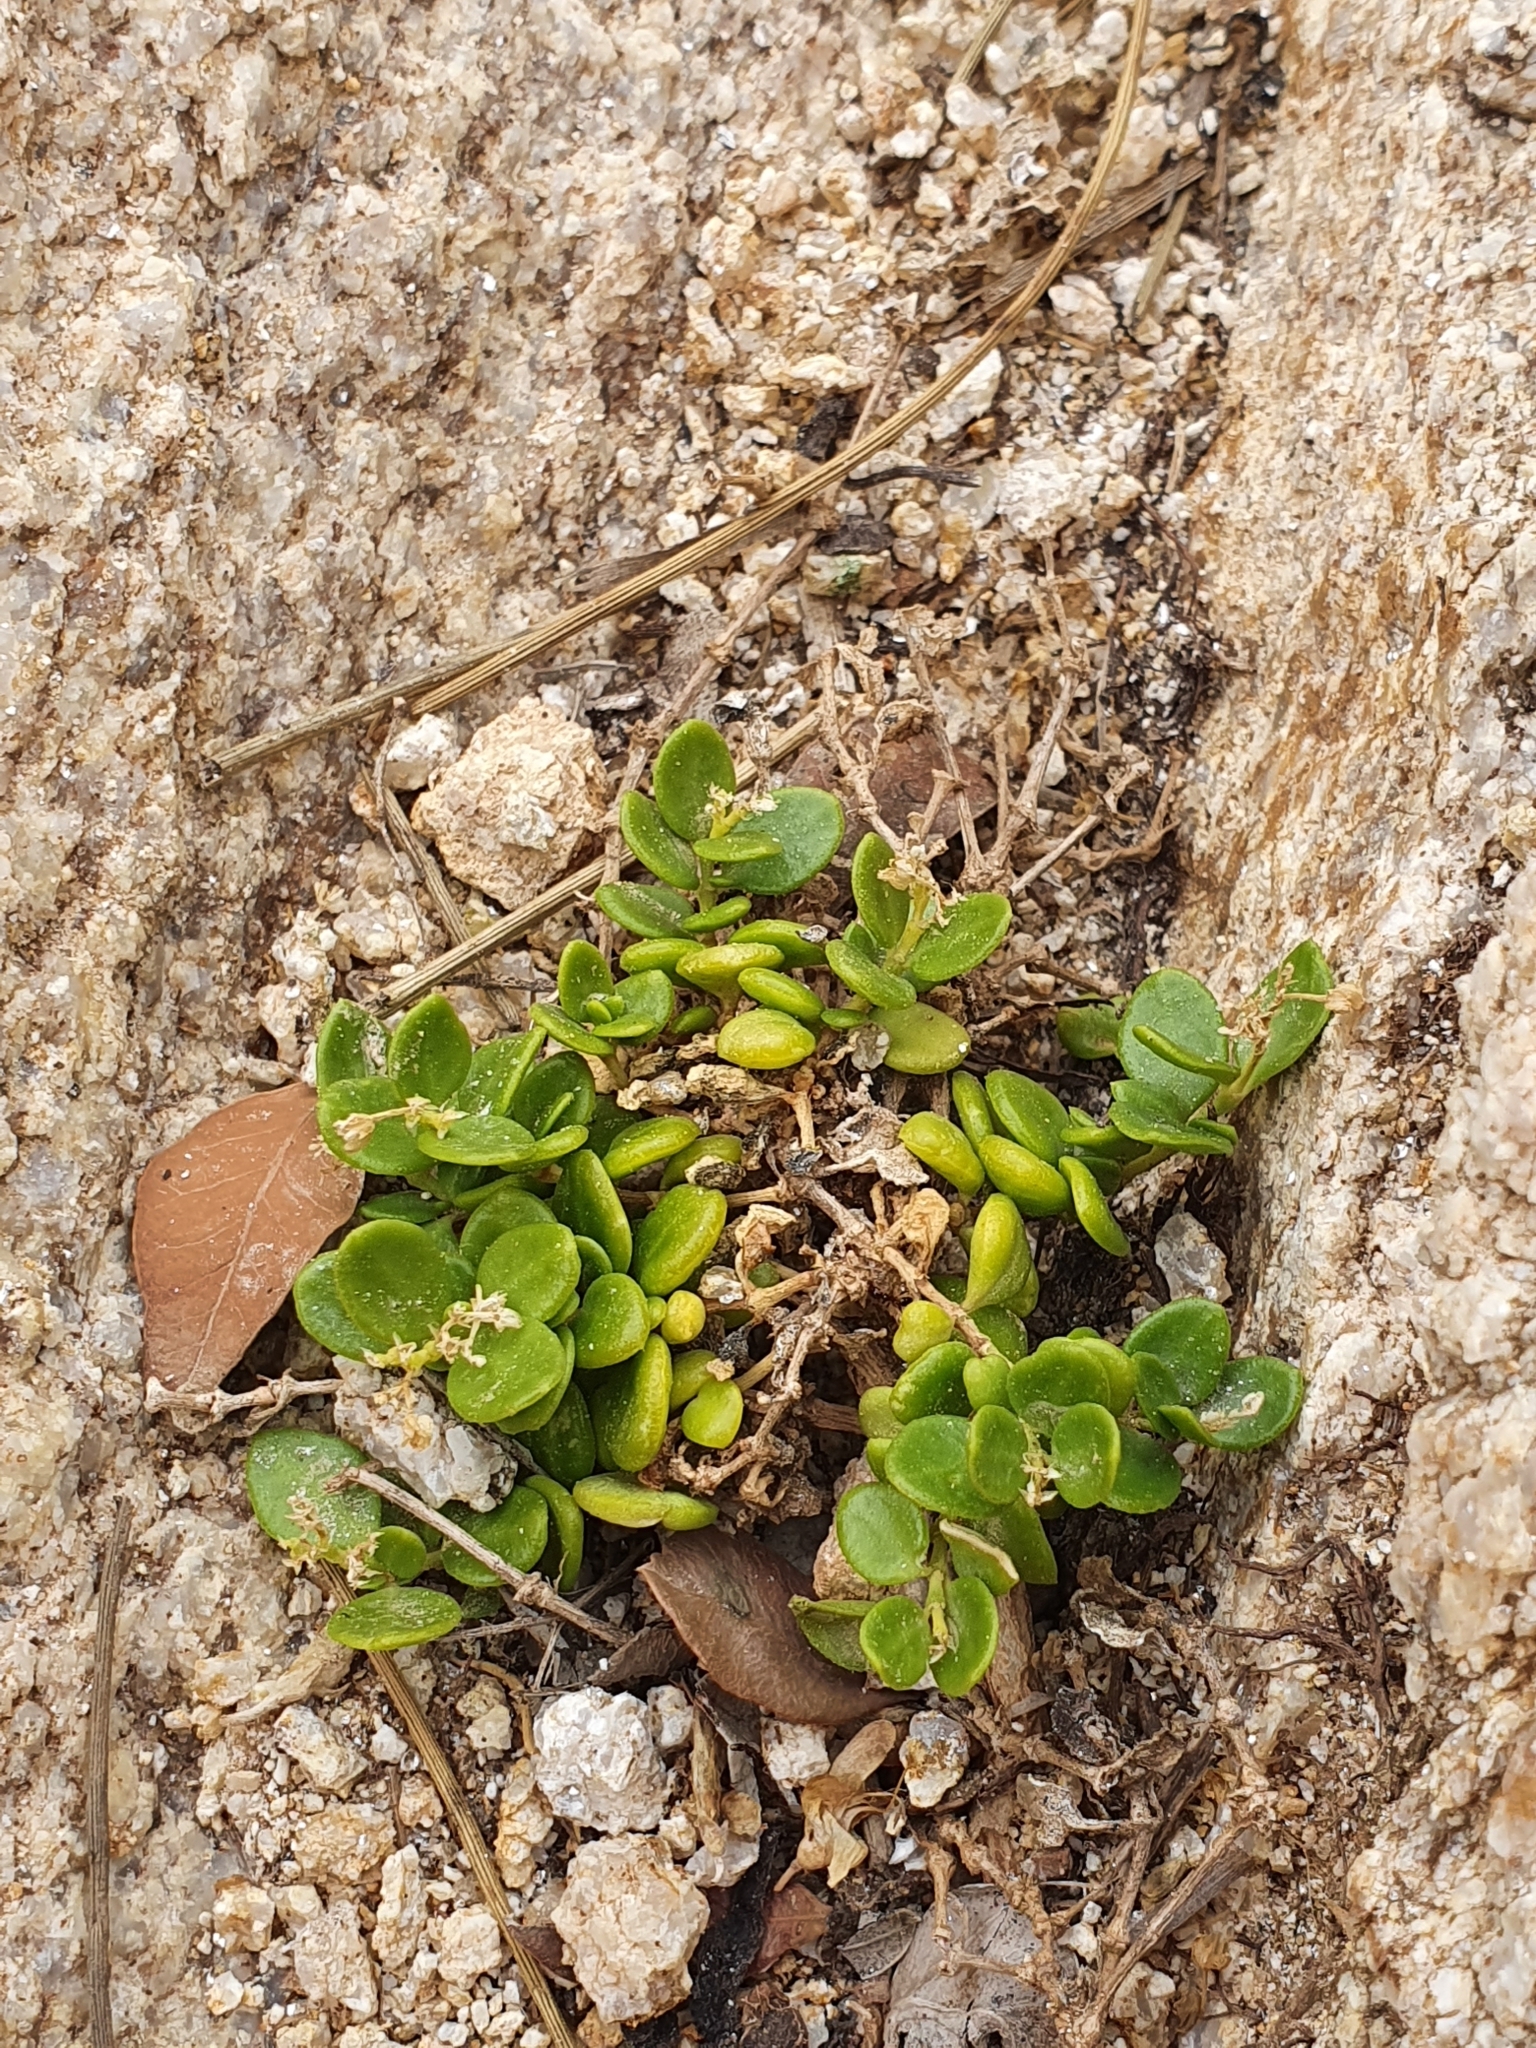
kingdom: Plantae
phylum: Tracheophyta
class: Magnoliopsida
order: Caryophyllales
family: Caryophyllaceae
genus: Polycarpon
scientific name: Polycarpon polycarpoides
